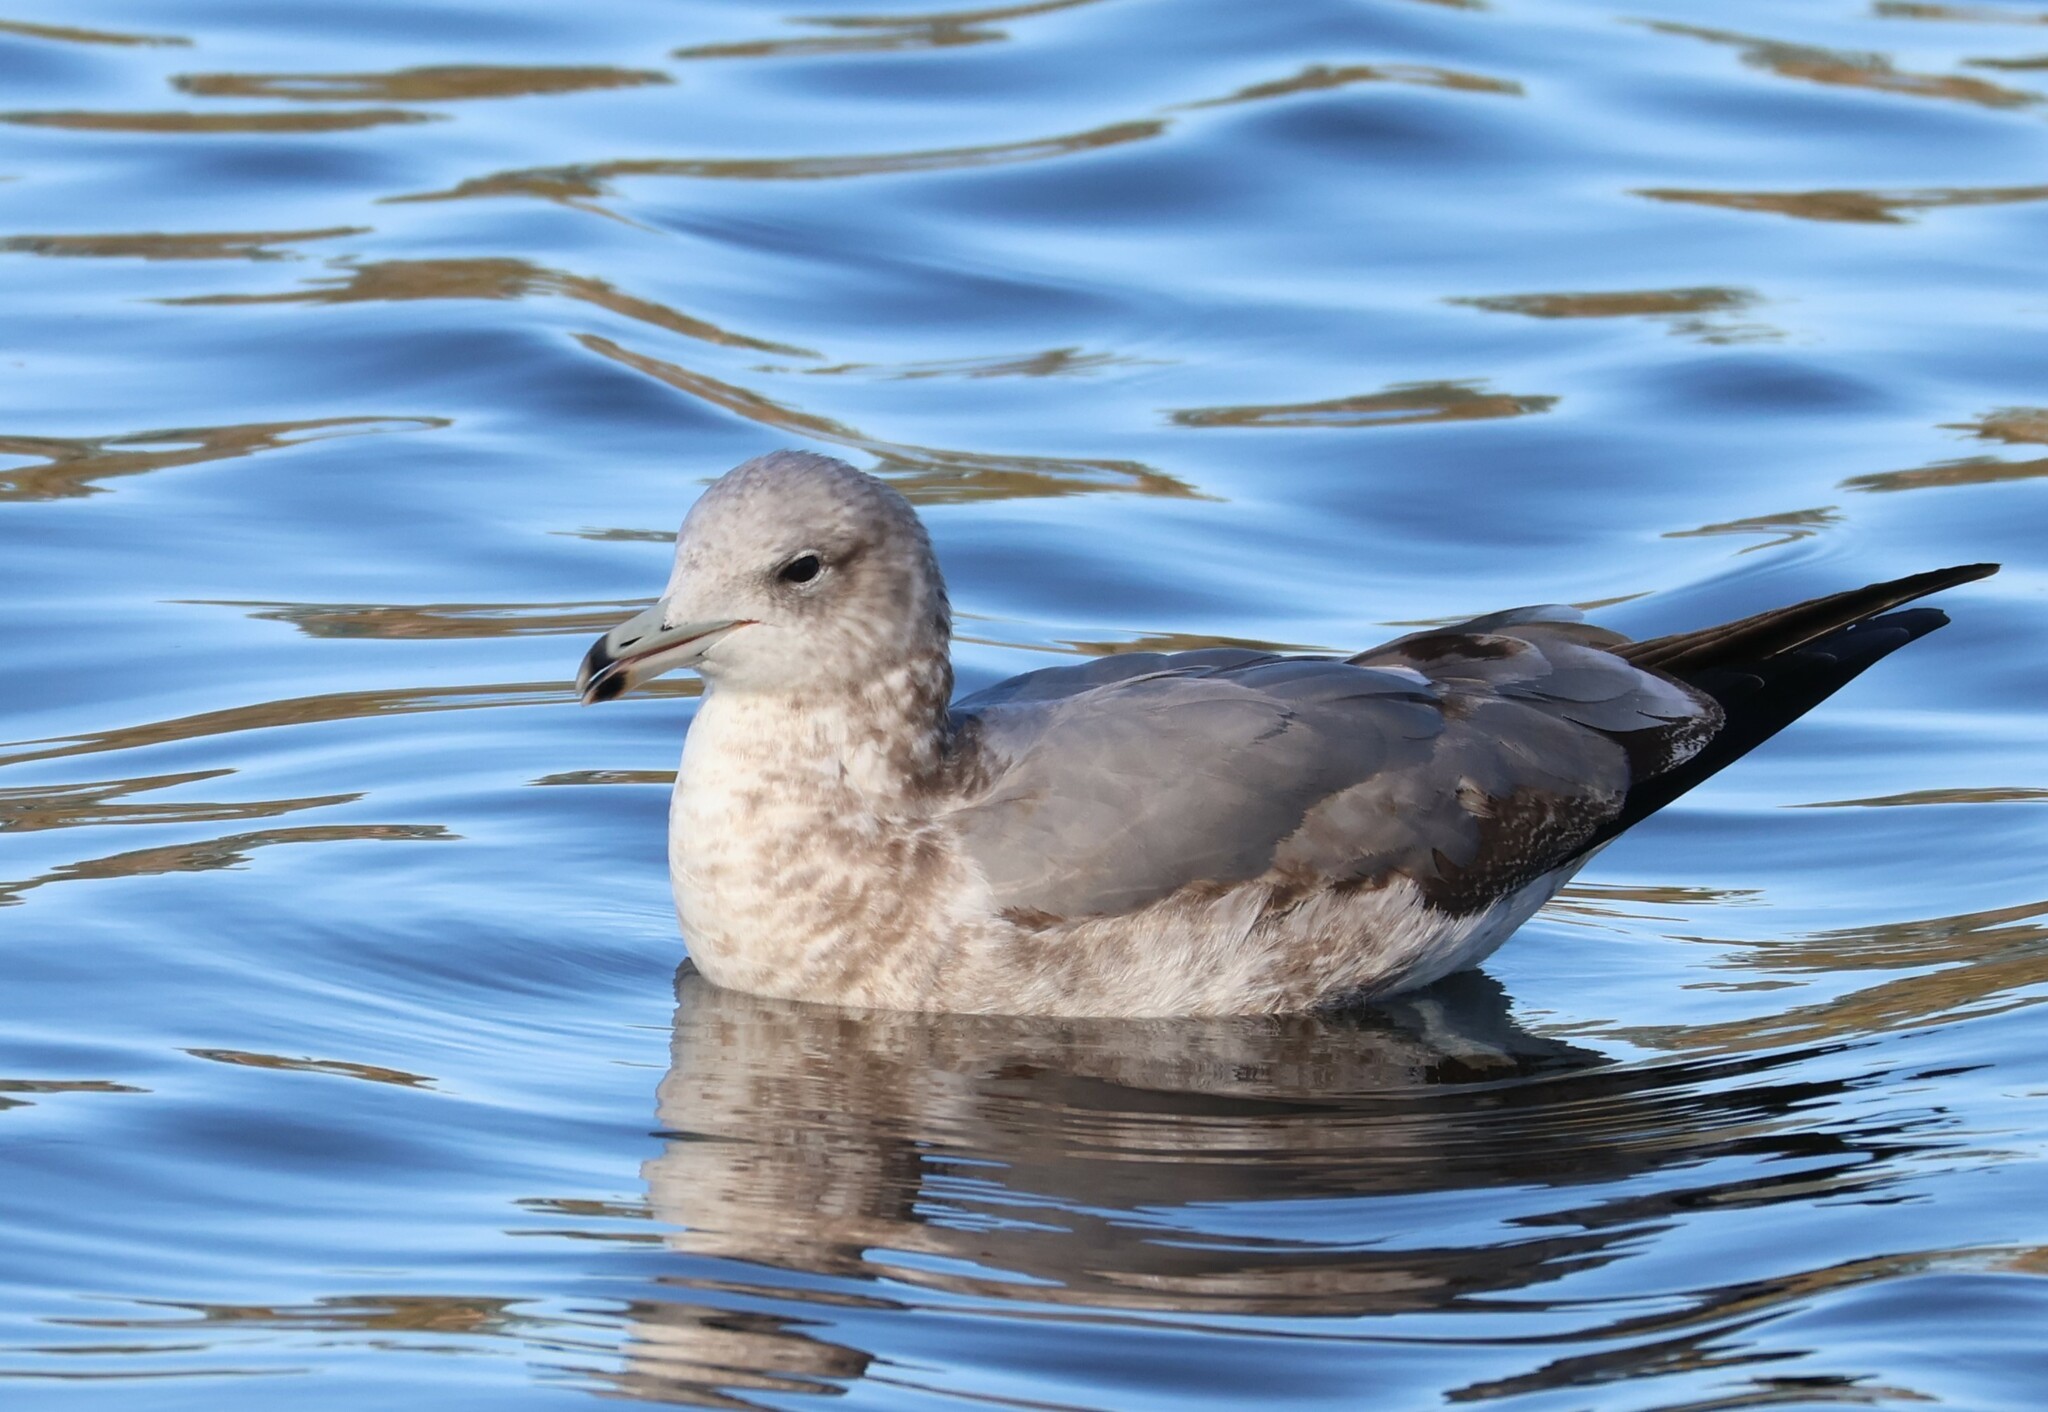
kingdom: Animalia
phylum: Chordata
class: Aves
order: Charadriiformes
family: Laridae
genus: Larus
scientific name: Larus californicus
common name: California gull
